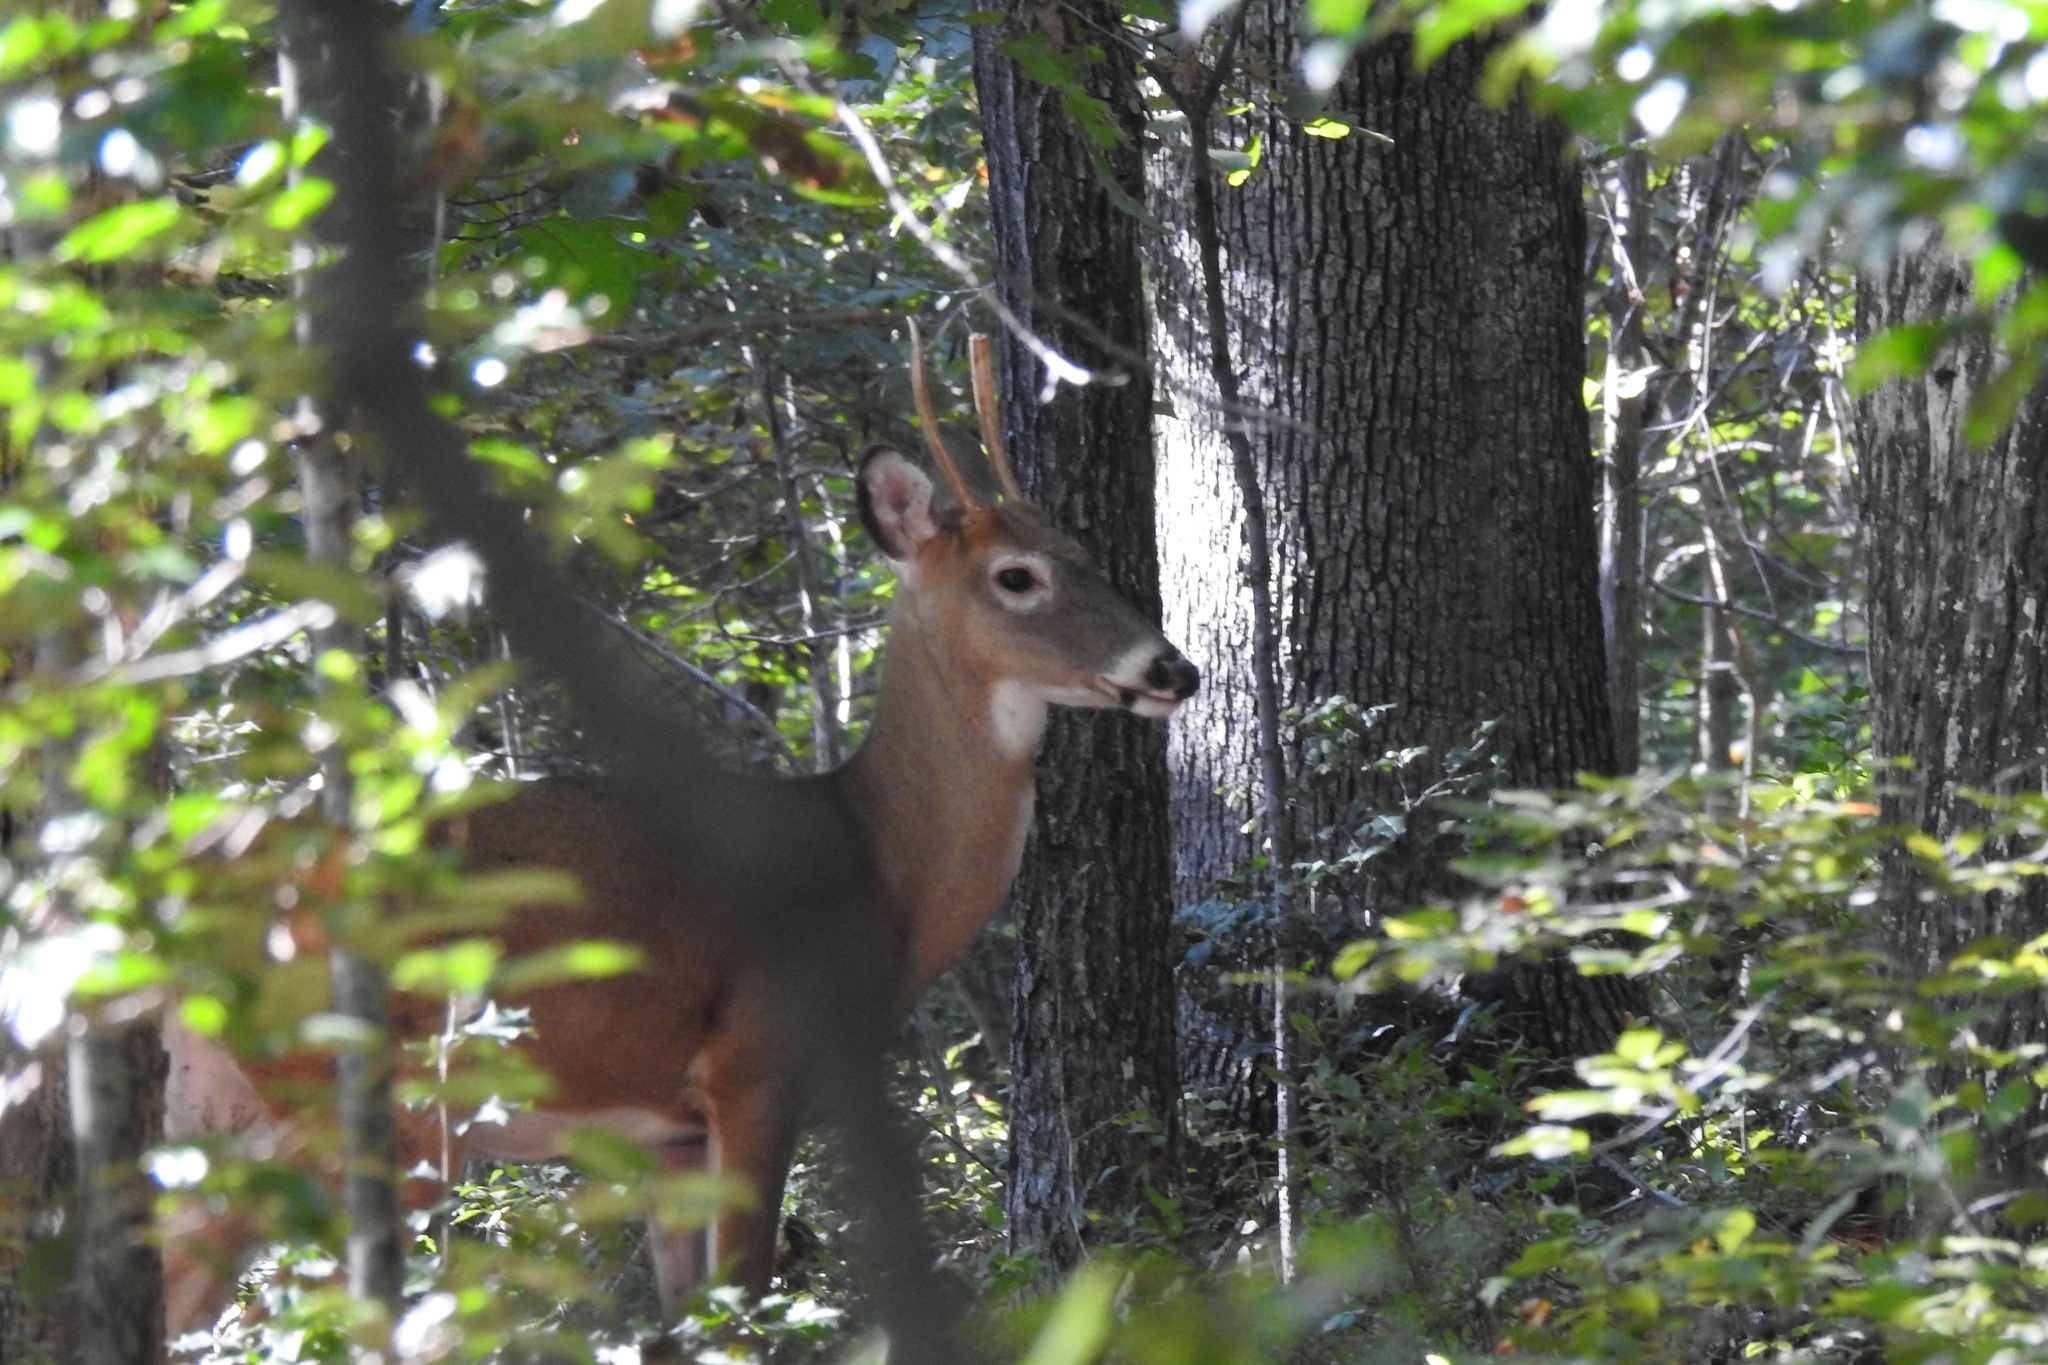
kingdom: Animalia
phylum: Chordata
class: Mammalia
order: Artiodactyla
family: Cervidae
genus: Odocoileus
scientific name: Odocoileus virginianus
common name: White-tailed deer
